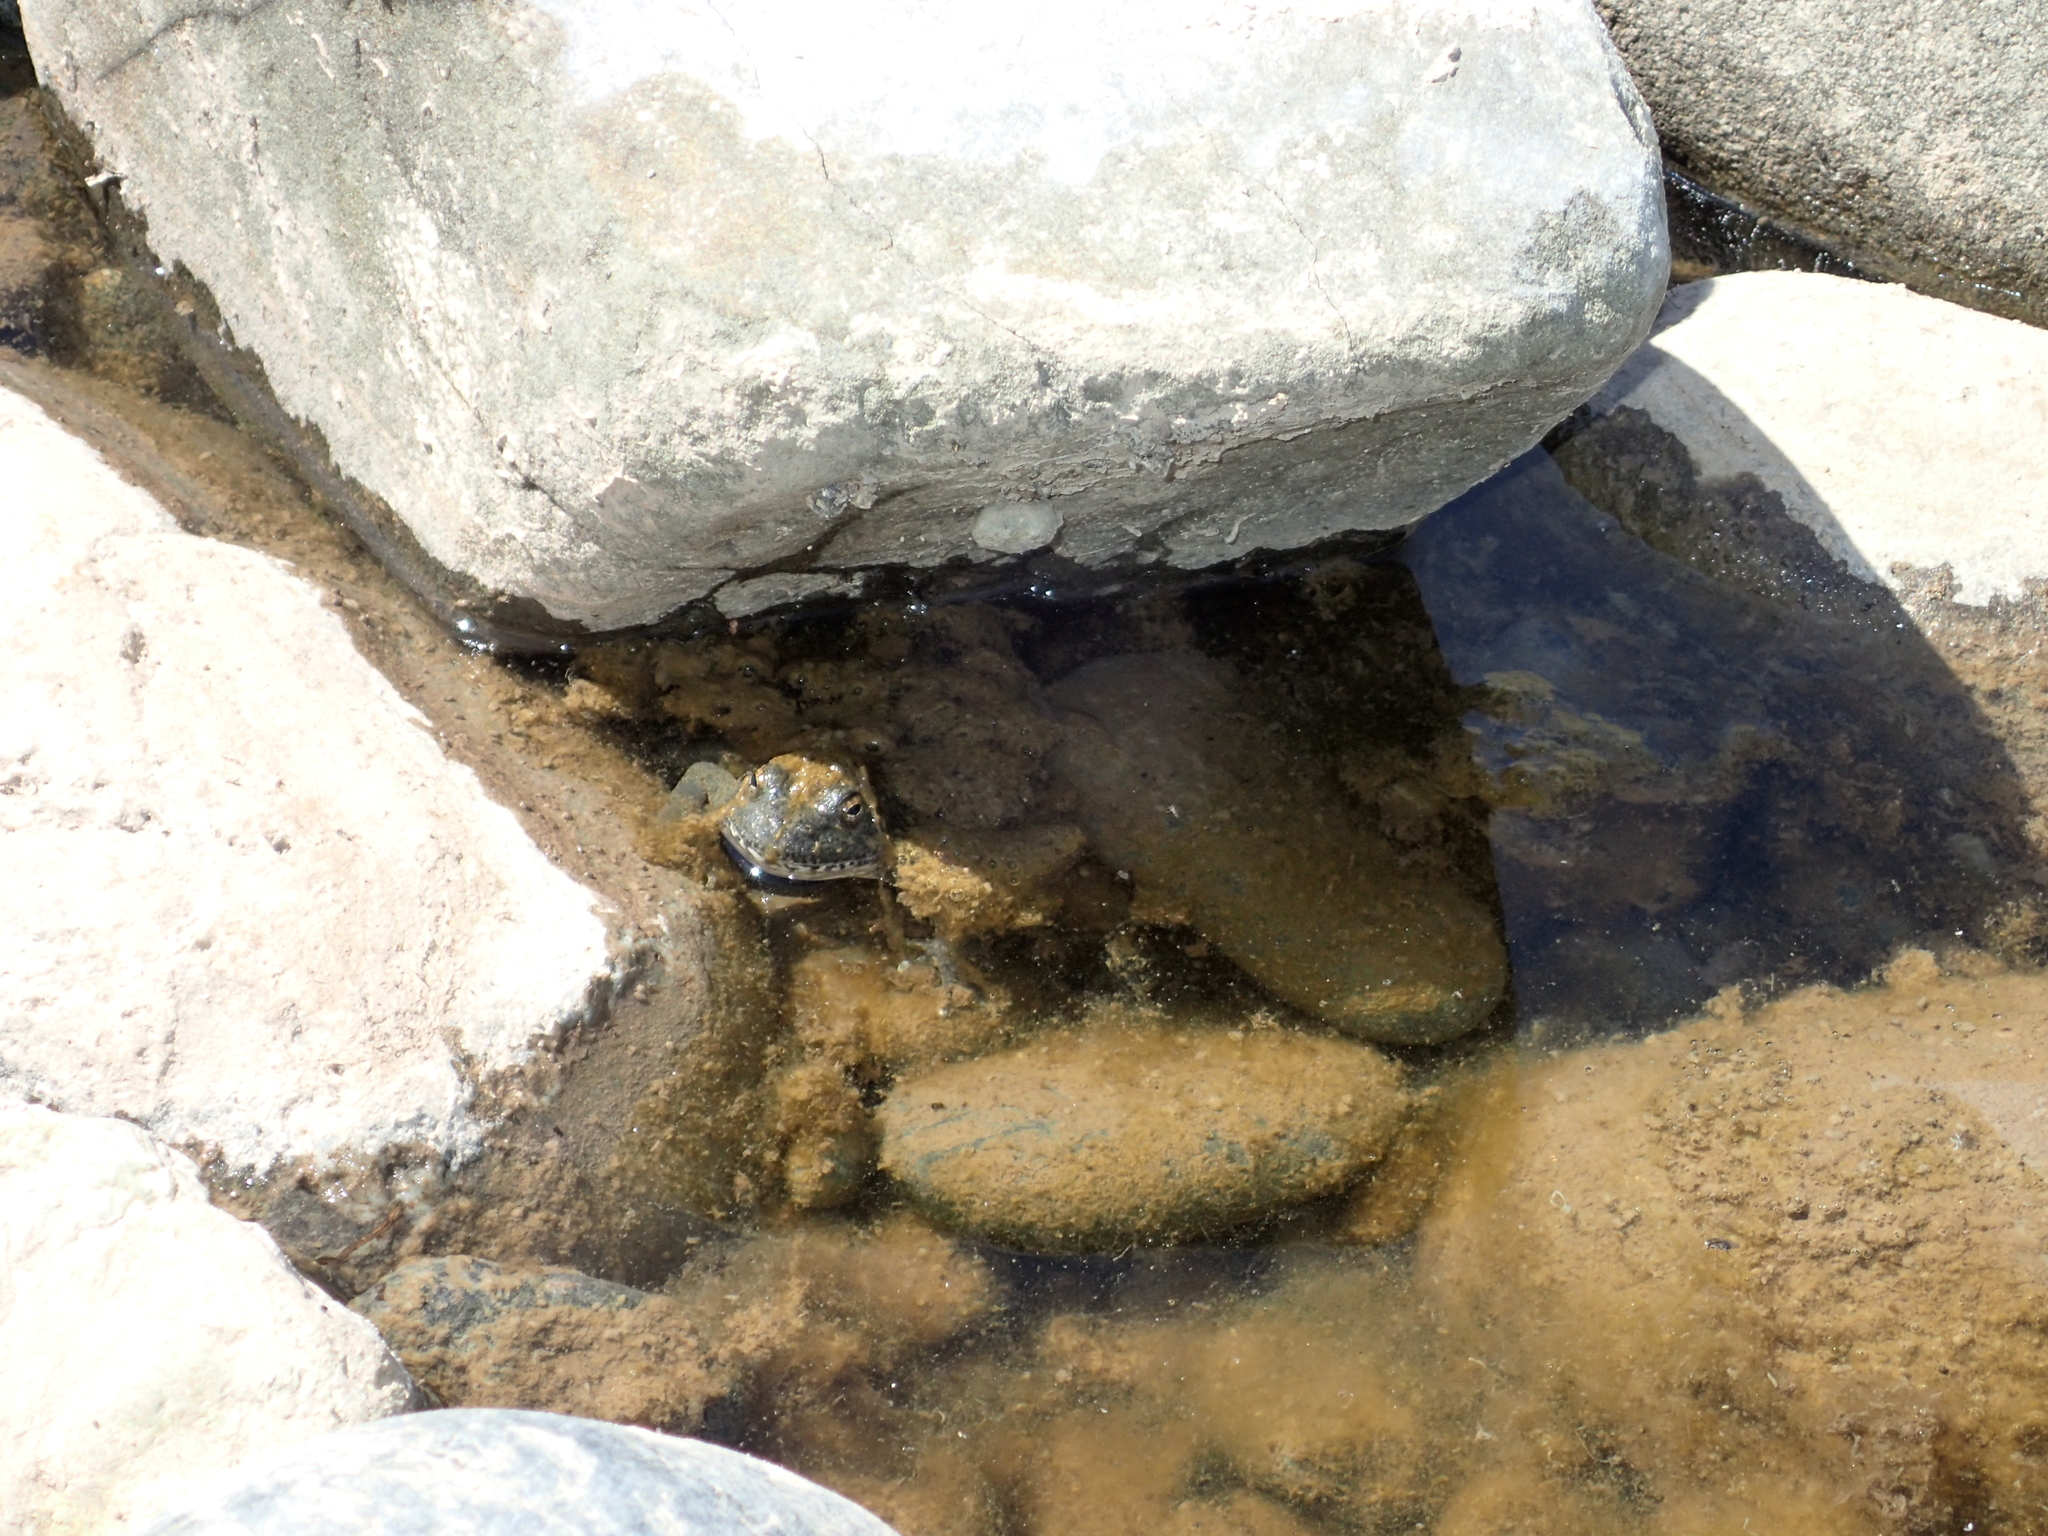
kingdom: Animalia
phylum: Chordata
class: Amphibia
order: Anura
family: Ranidae
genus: Rana
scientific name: Rana boylii
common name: Foothill yellow-legged frog
